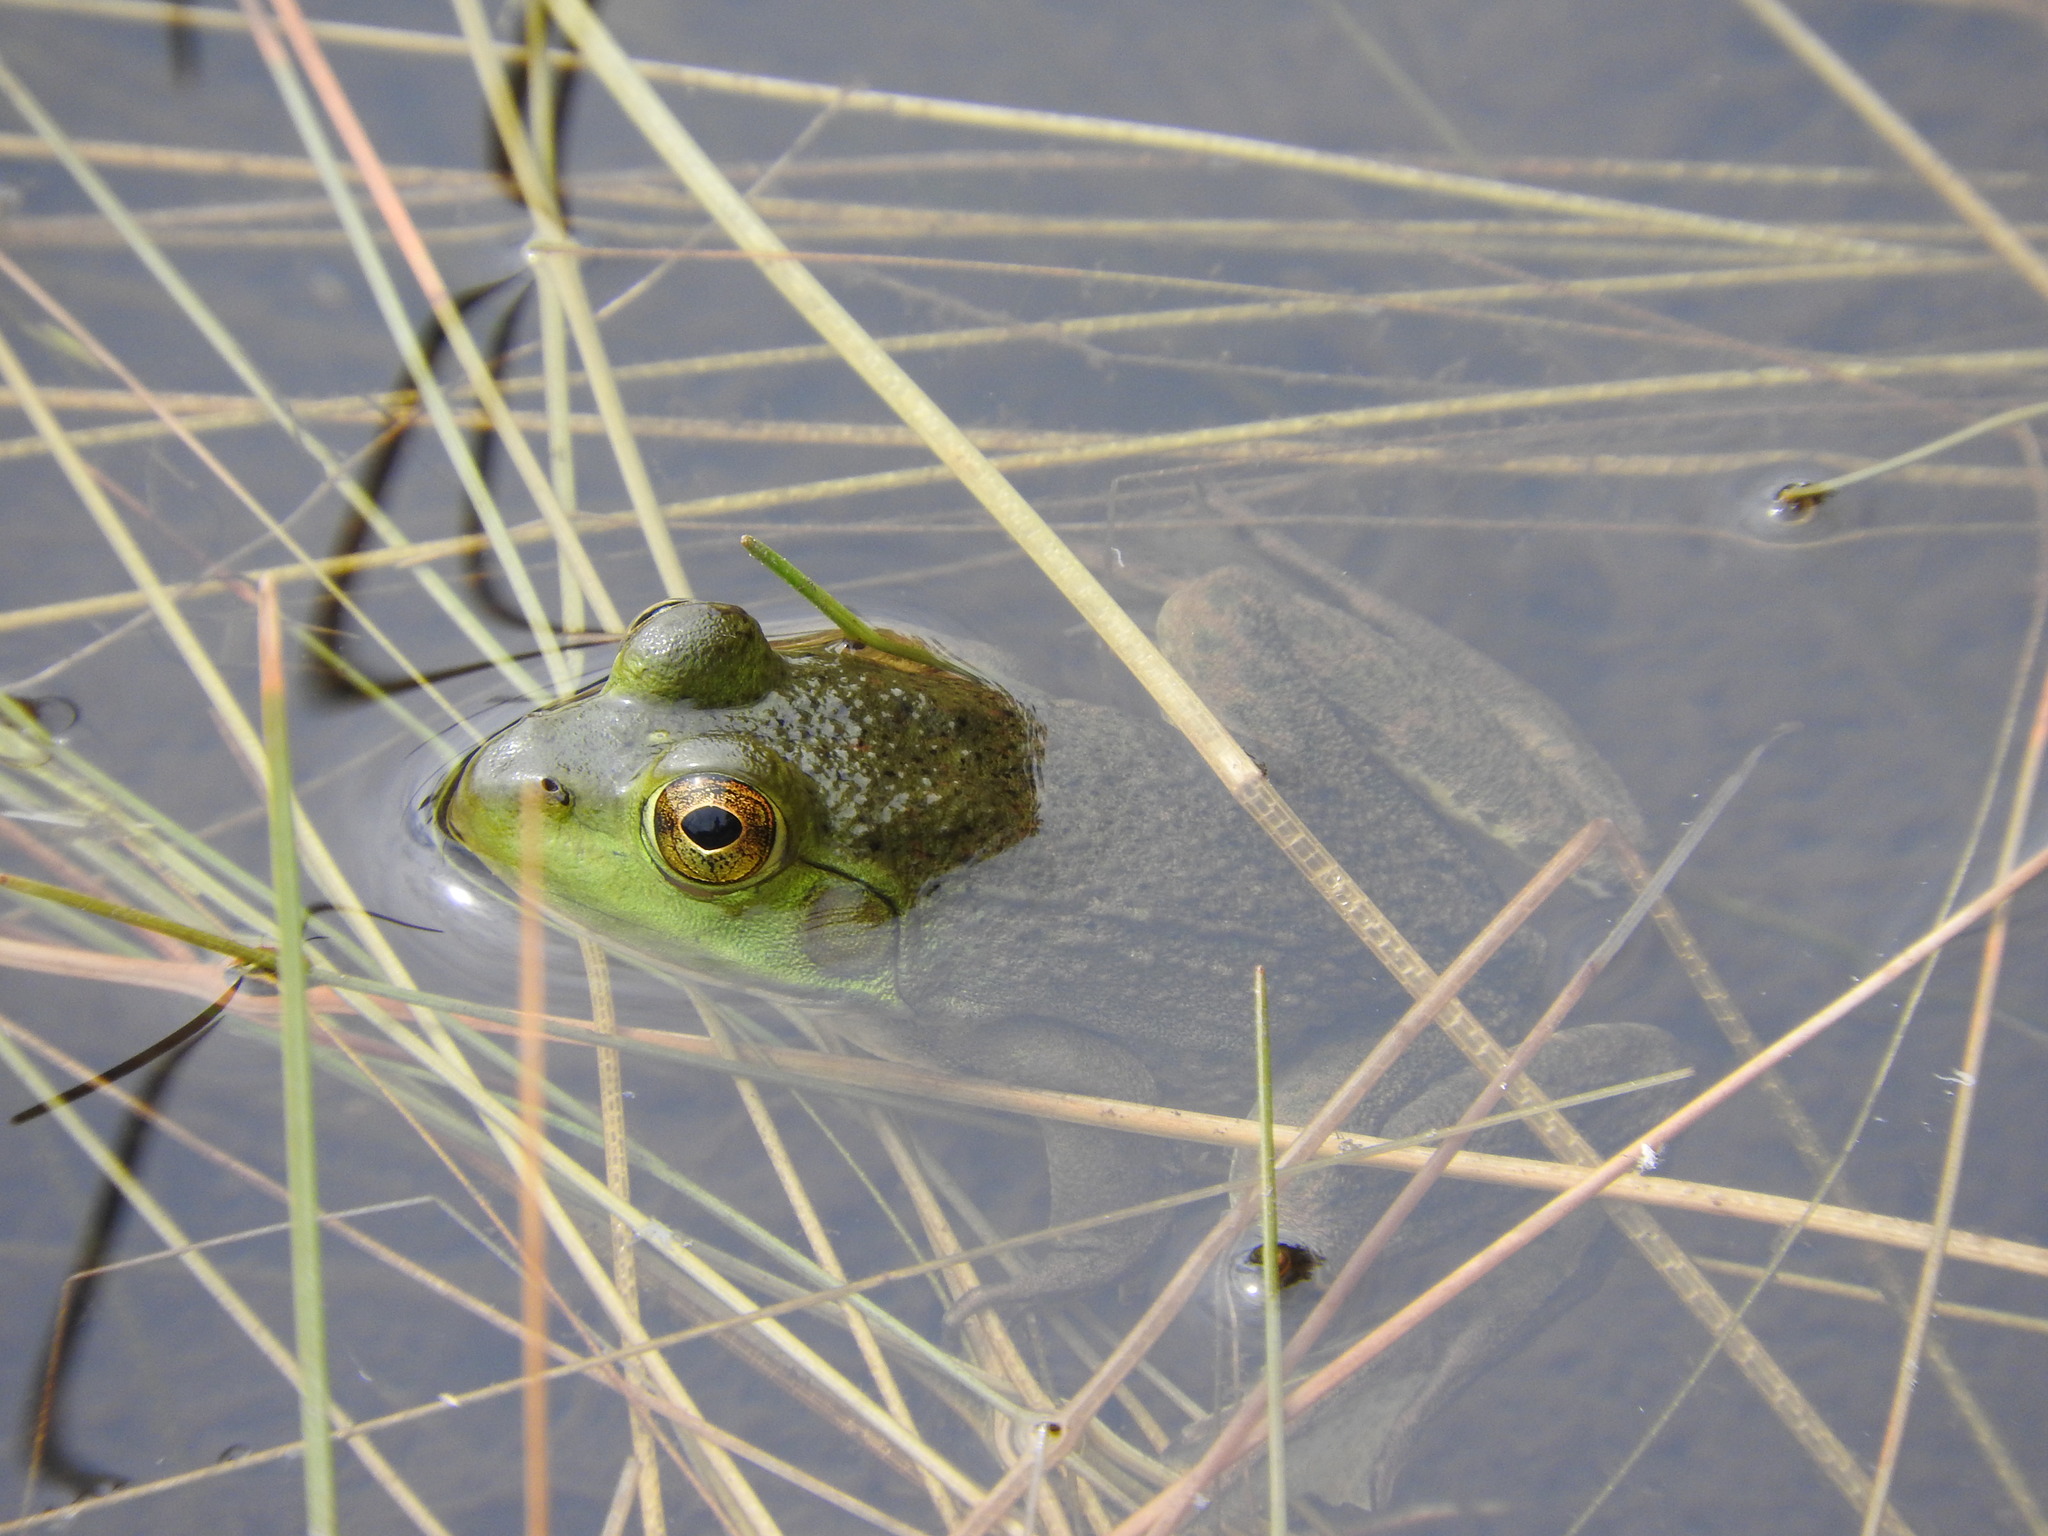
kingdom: Animalia
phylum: Chordata
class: Amphibia
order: Anura
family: Ranidae
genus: Lithobates
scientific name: Lithobates catesbeianus
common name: American bullfrog
